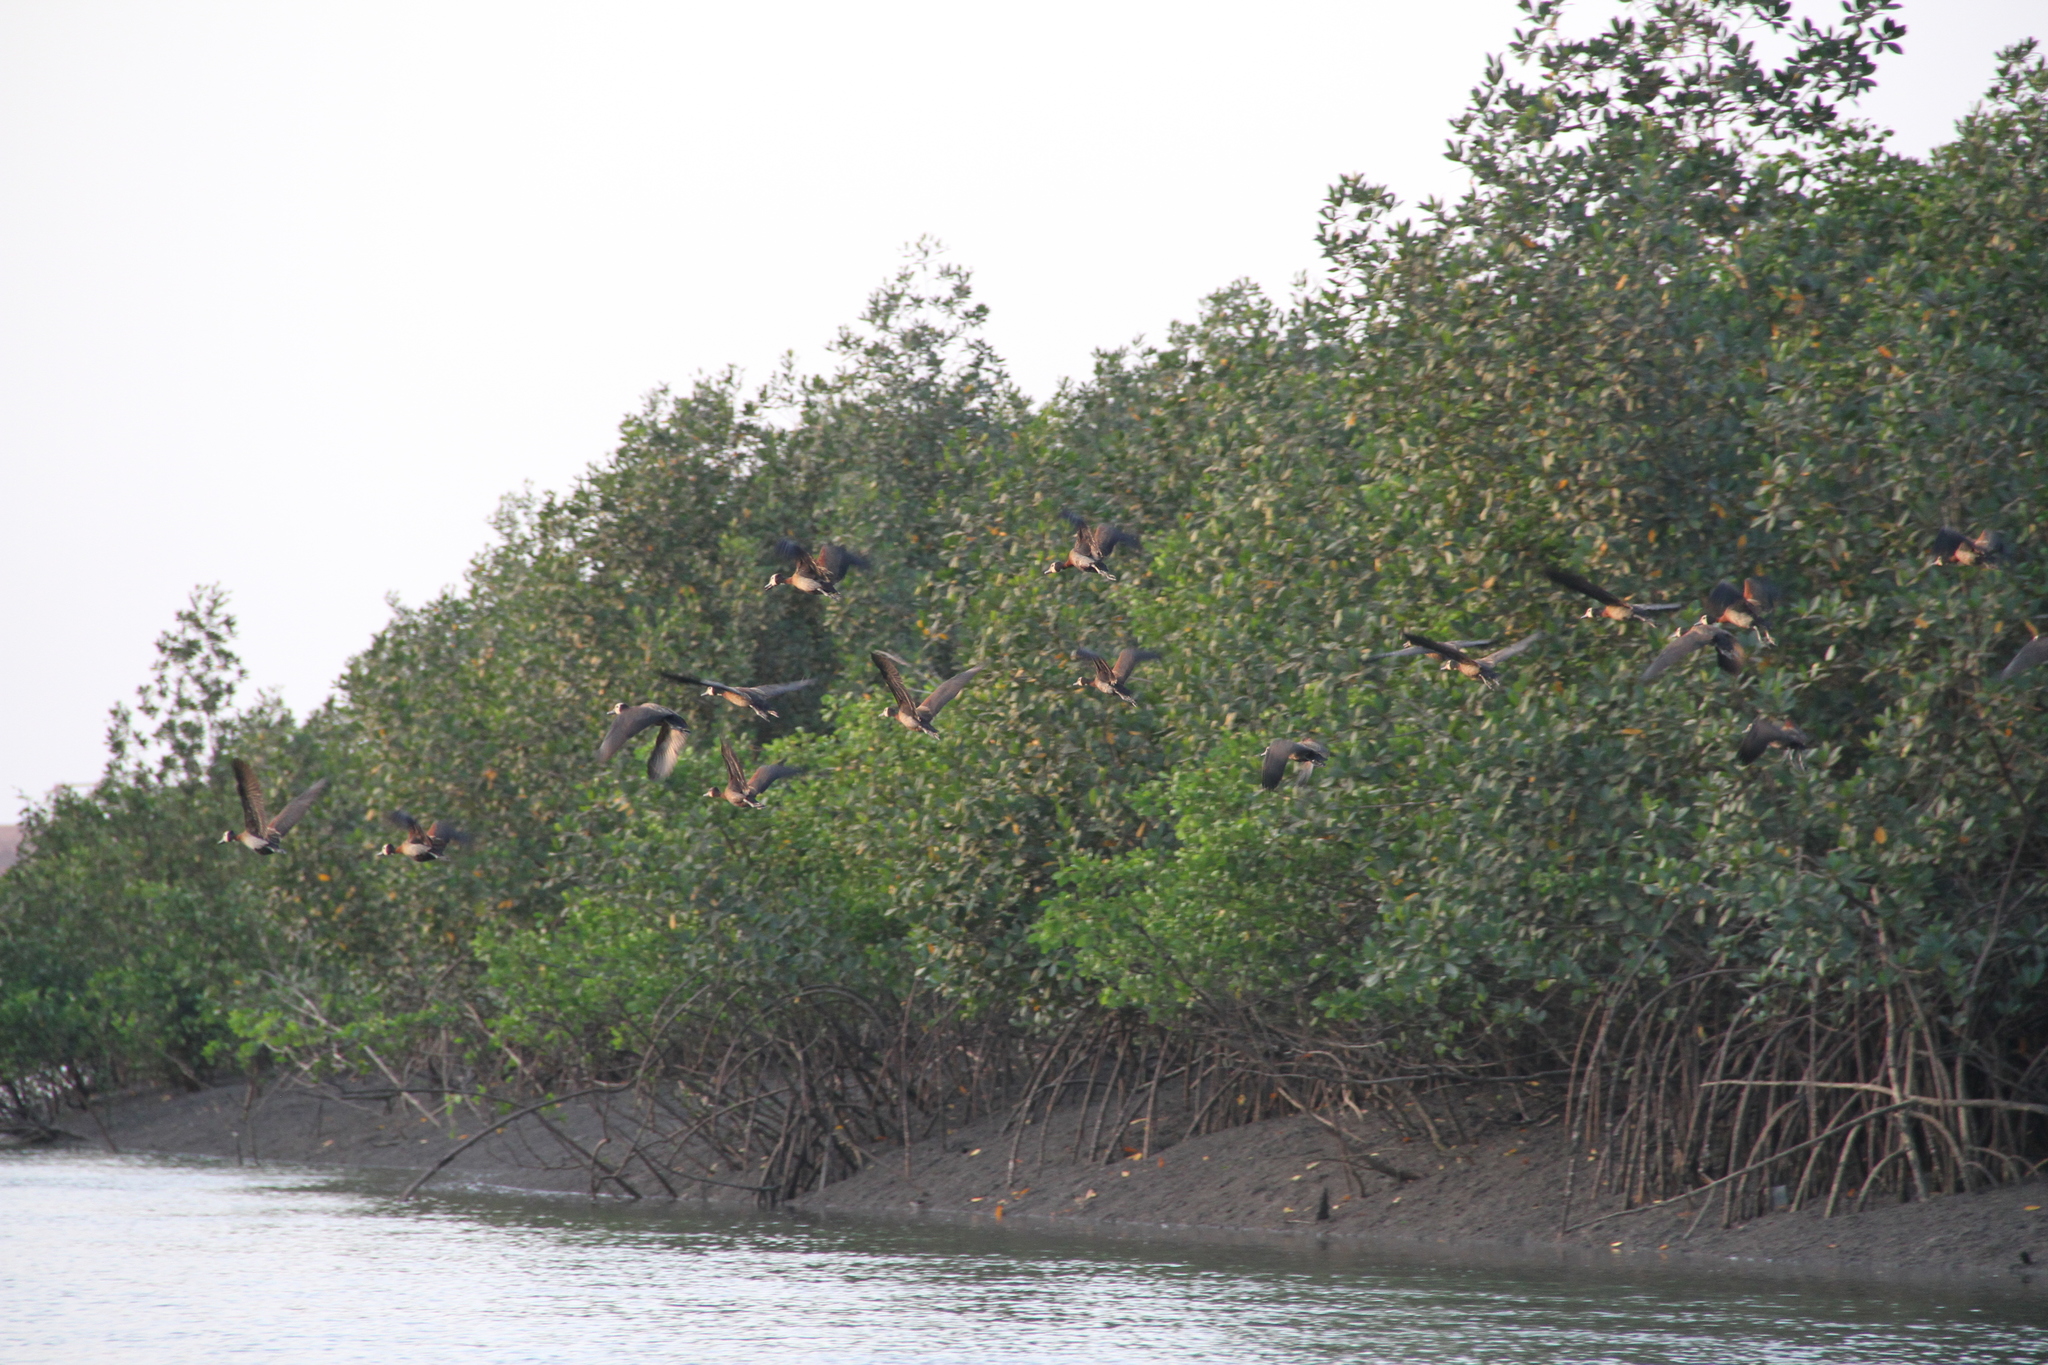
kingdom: Animalia
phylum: Chordata
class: Aves
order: Anseriformes
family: Anatidae
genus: Dendrocygna
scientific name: Dendrocygna viduata
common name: White-faced whistling duck
